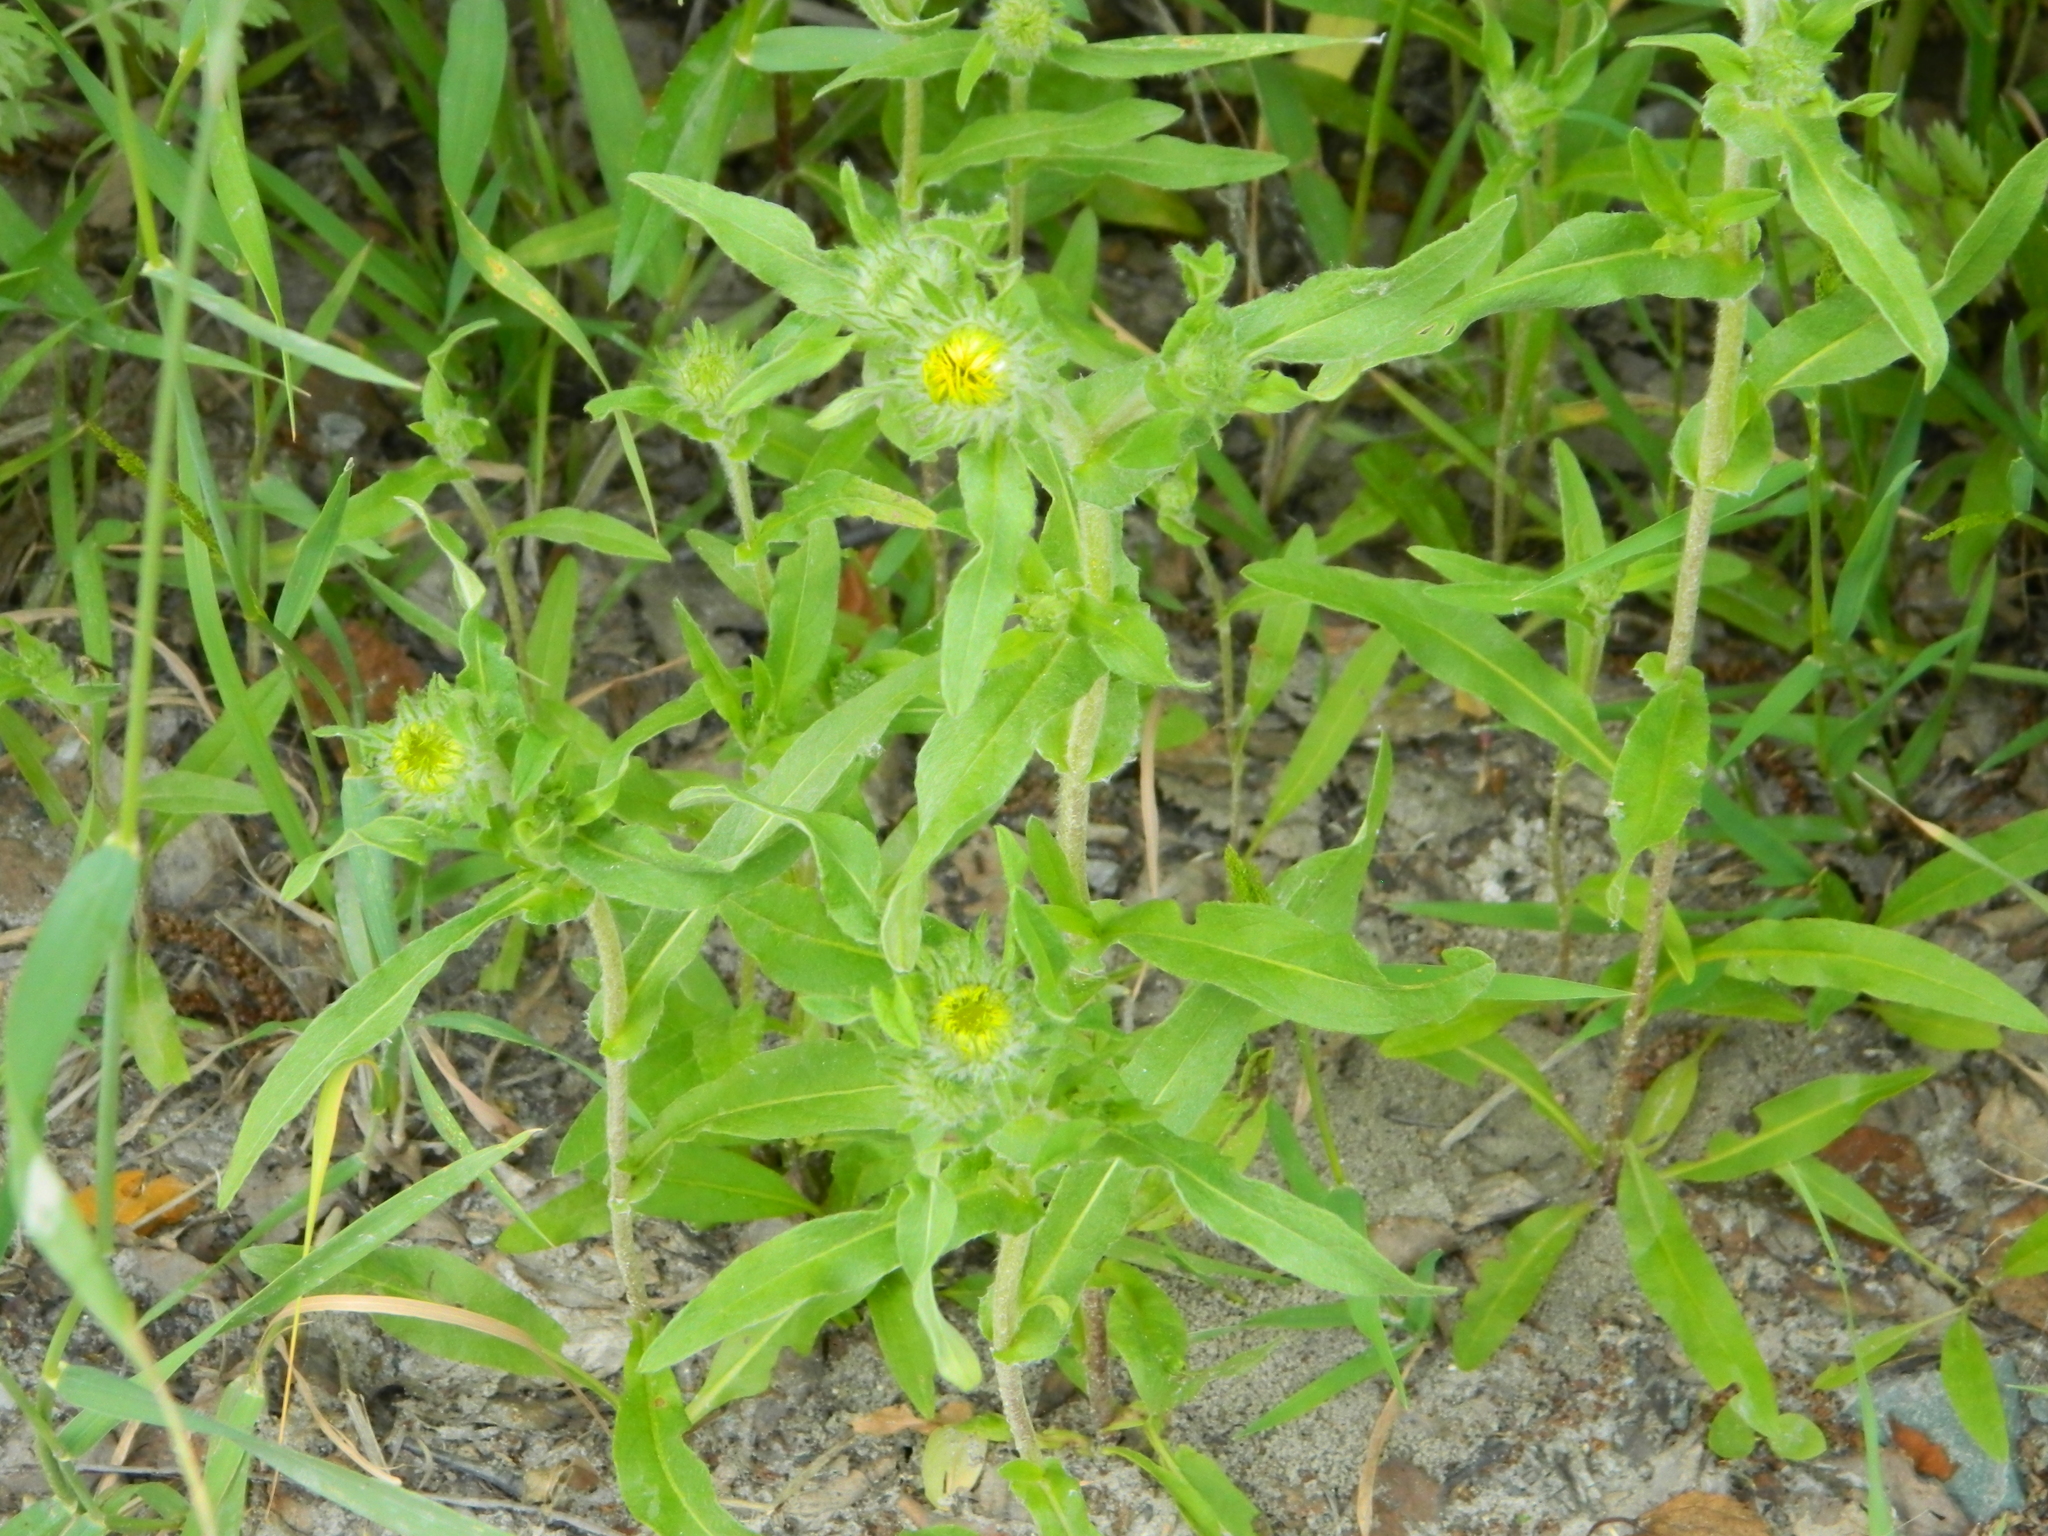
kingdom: Plantae
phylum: Tracheophyta
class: Magnoliopsida
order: Asterales
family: Asteraceae
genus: Pentanema
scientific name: Pentanema britannicum
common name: British elecampane
